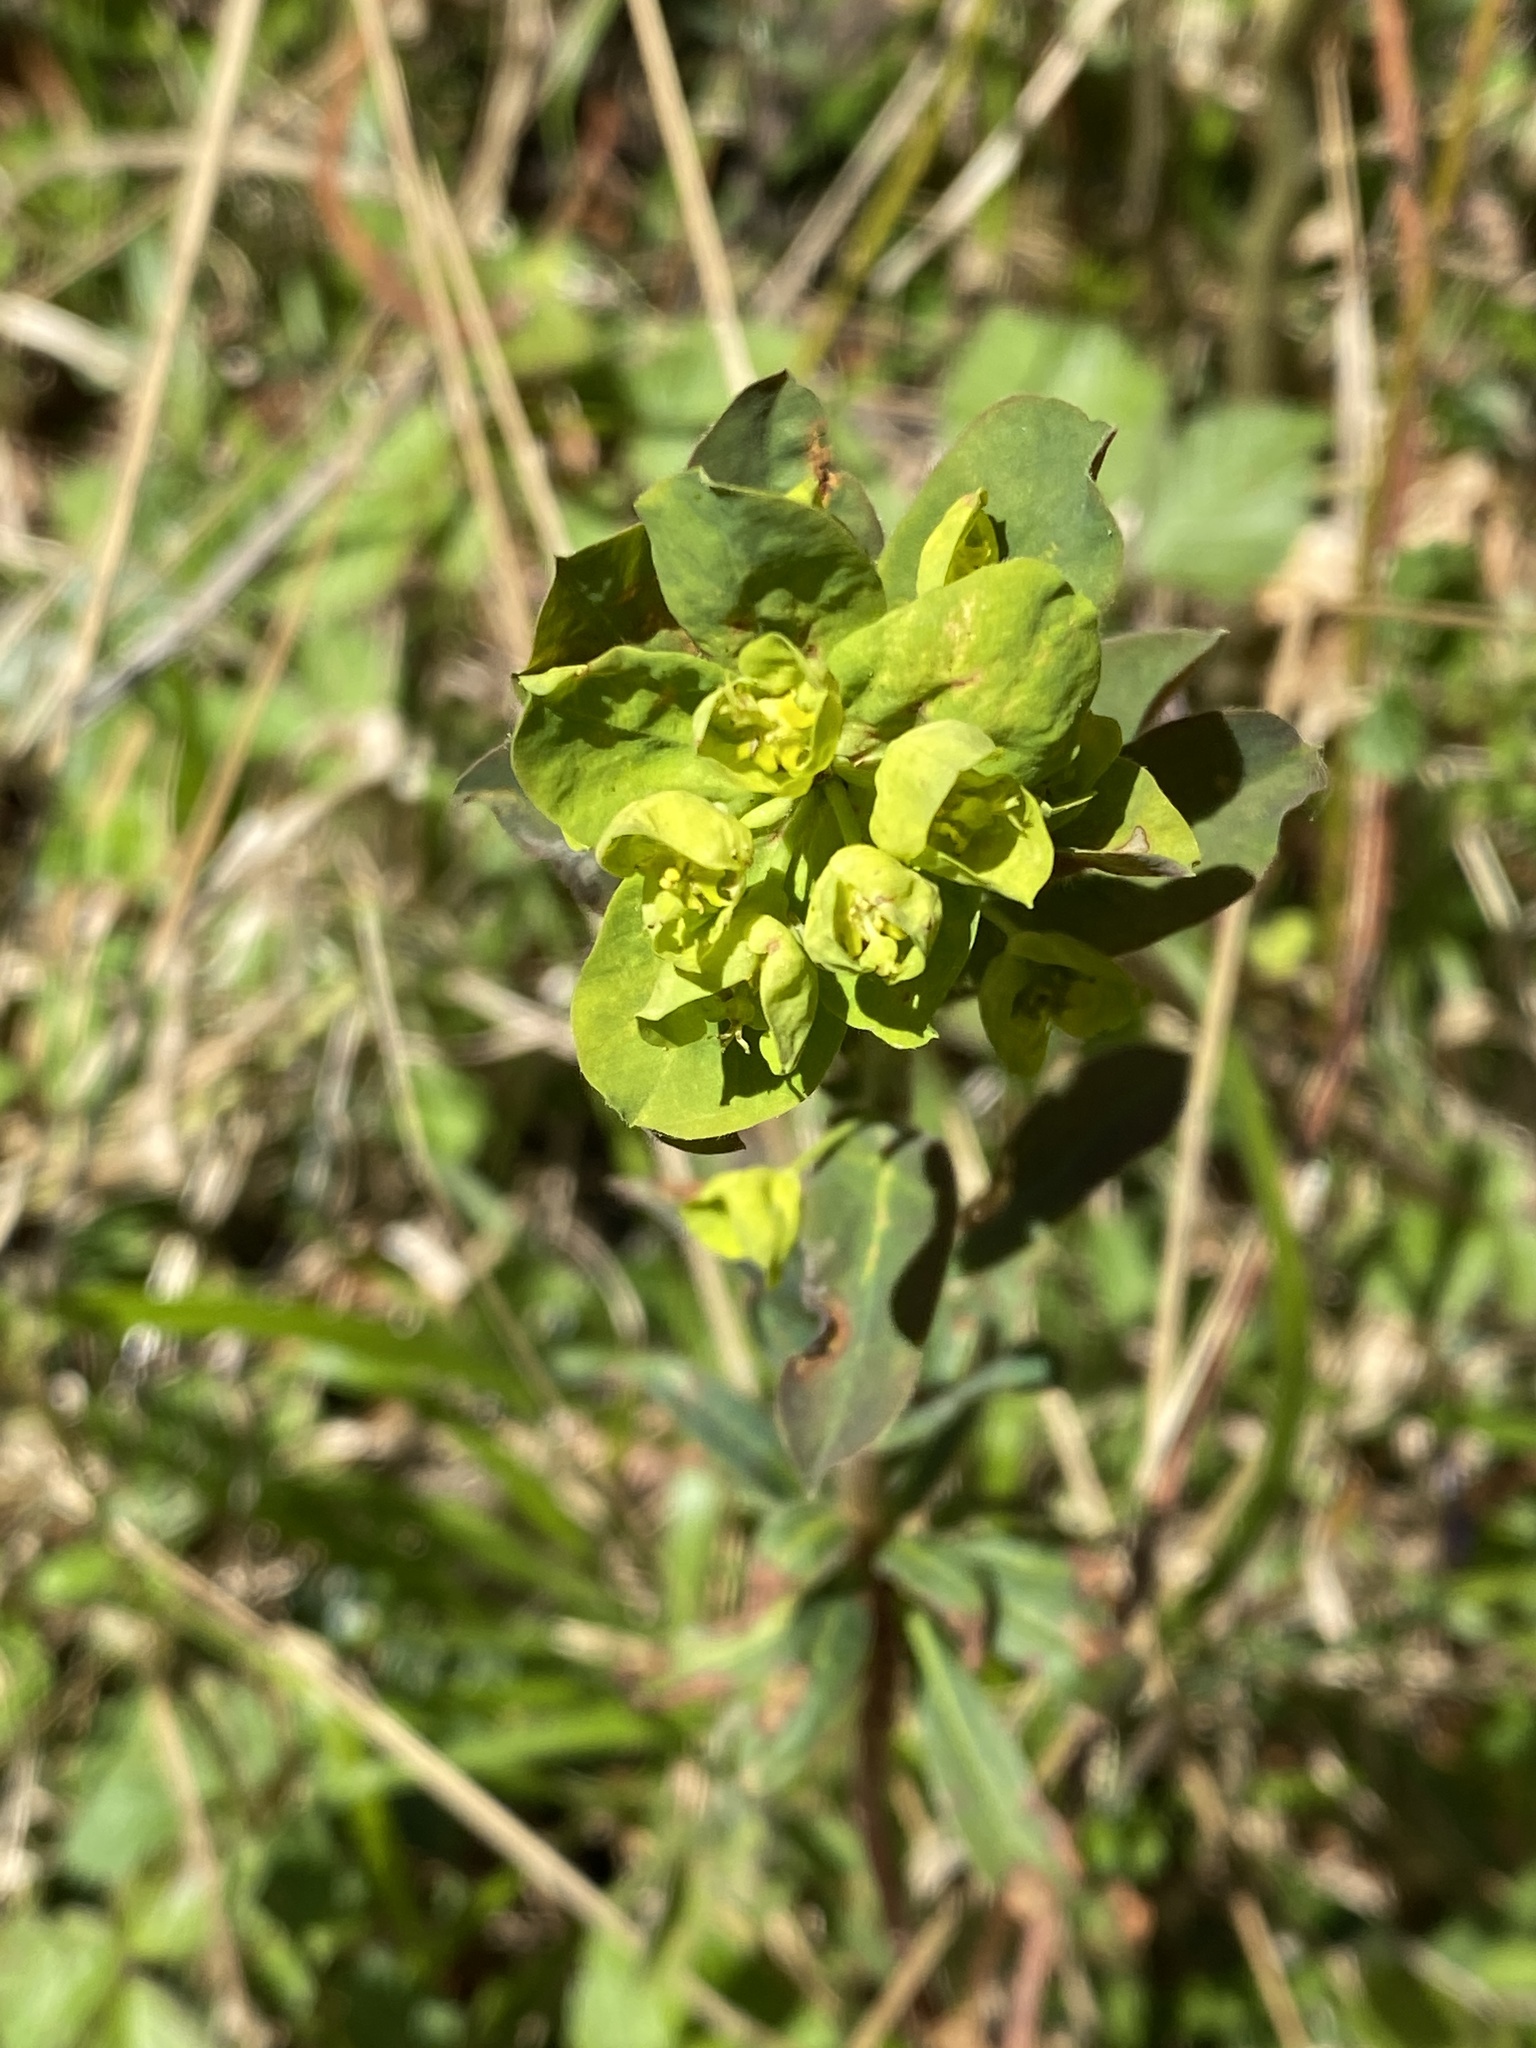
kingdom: Plantae
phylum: Tracheophyta
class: Magnoliopsida
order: Malpighiales
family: Euphorbiaceae
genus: Euphorbia
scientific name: Euphorbia amygdaloides
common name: Wood spurge
